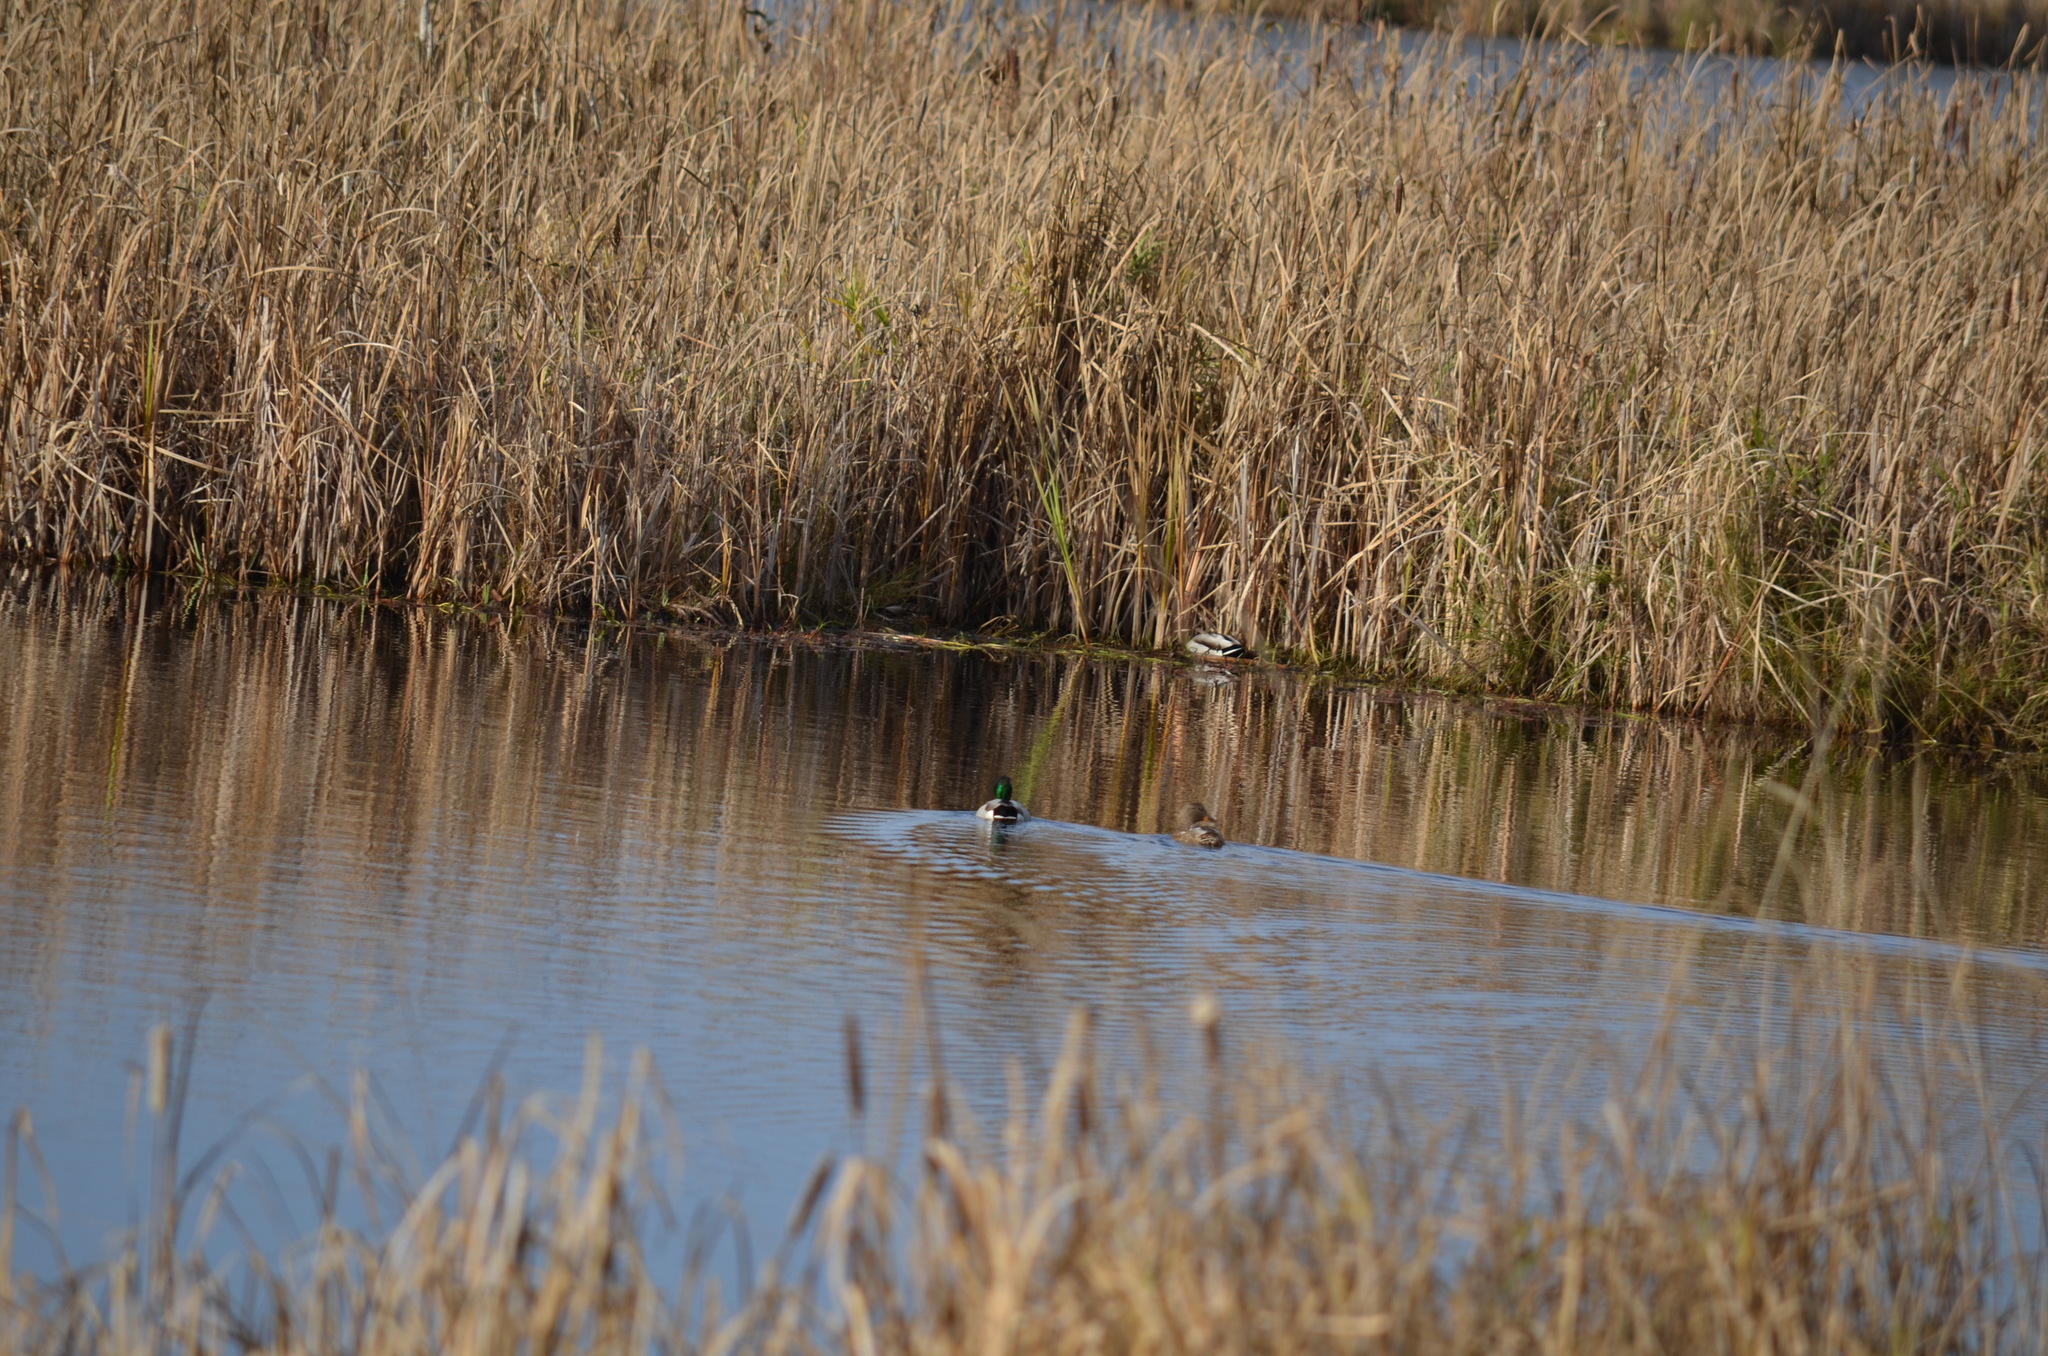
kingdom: Animalia
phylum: Chordata
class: Aves
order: Anseriformes
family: Anatidae
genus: Anas
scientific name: Anas platyrhynchos
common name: Mallard
